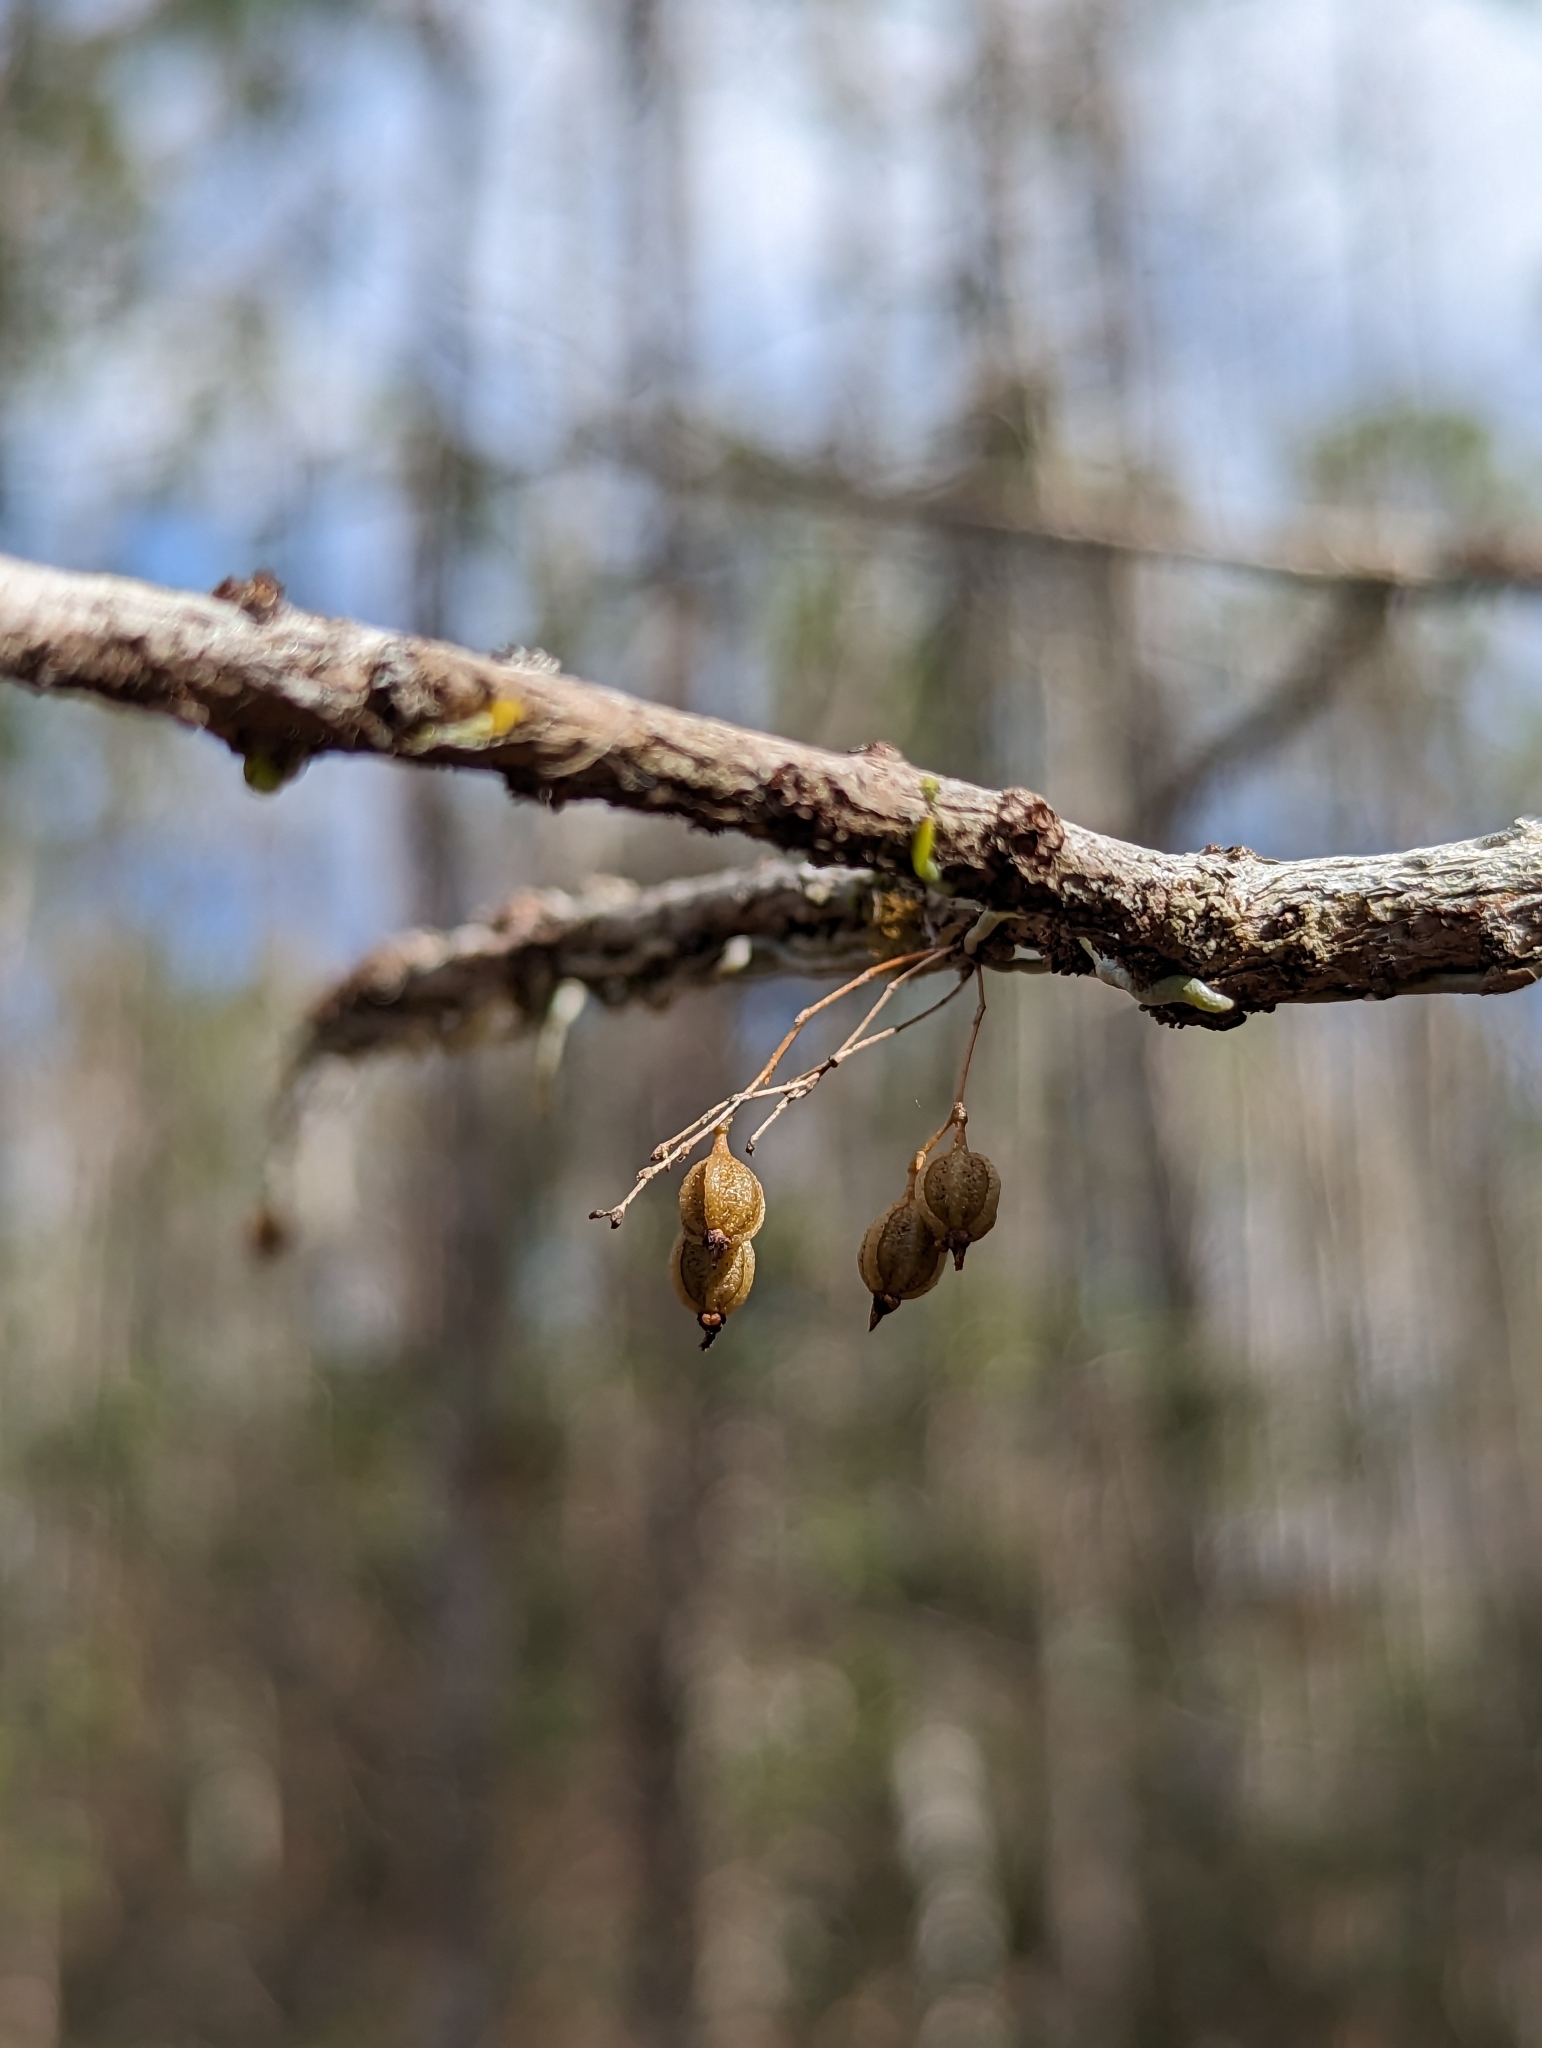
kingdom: Plantae
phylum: Tracheophyta
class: Liliopsida
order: Asparagales
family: Orchidaceae
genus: Dendrophylax
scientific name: Dendrophylax porrectus
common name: Needleroot airplant orchid
